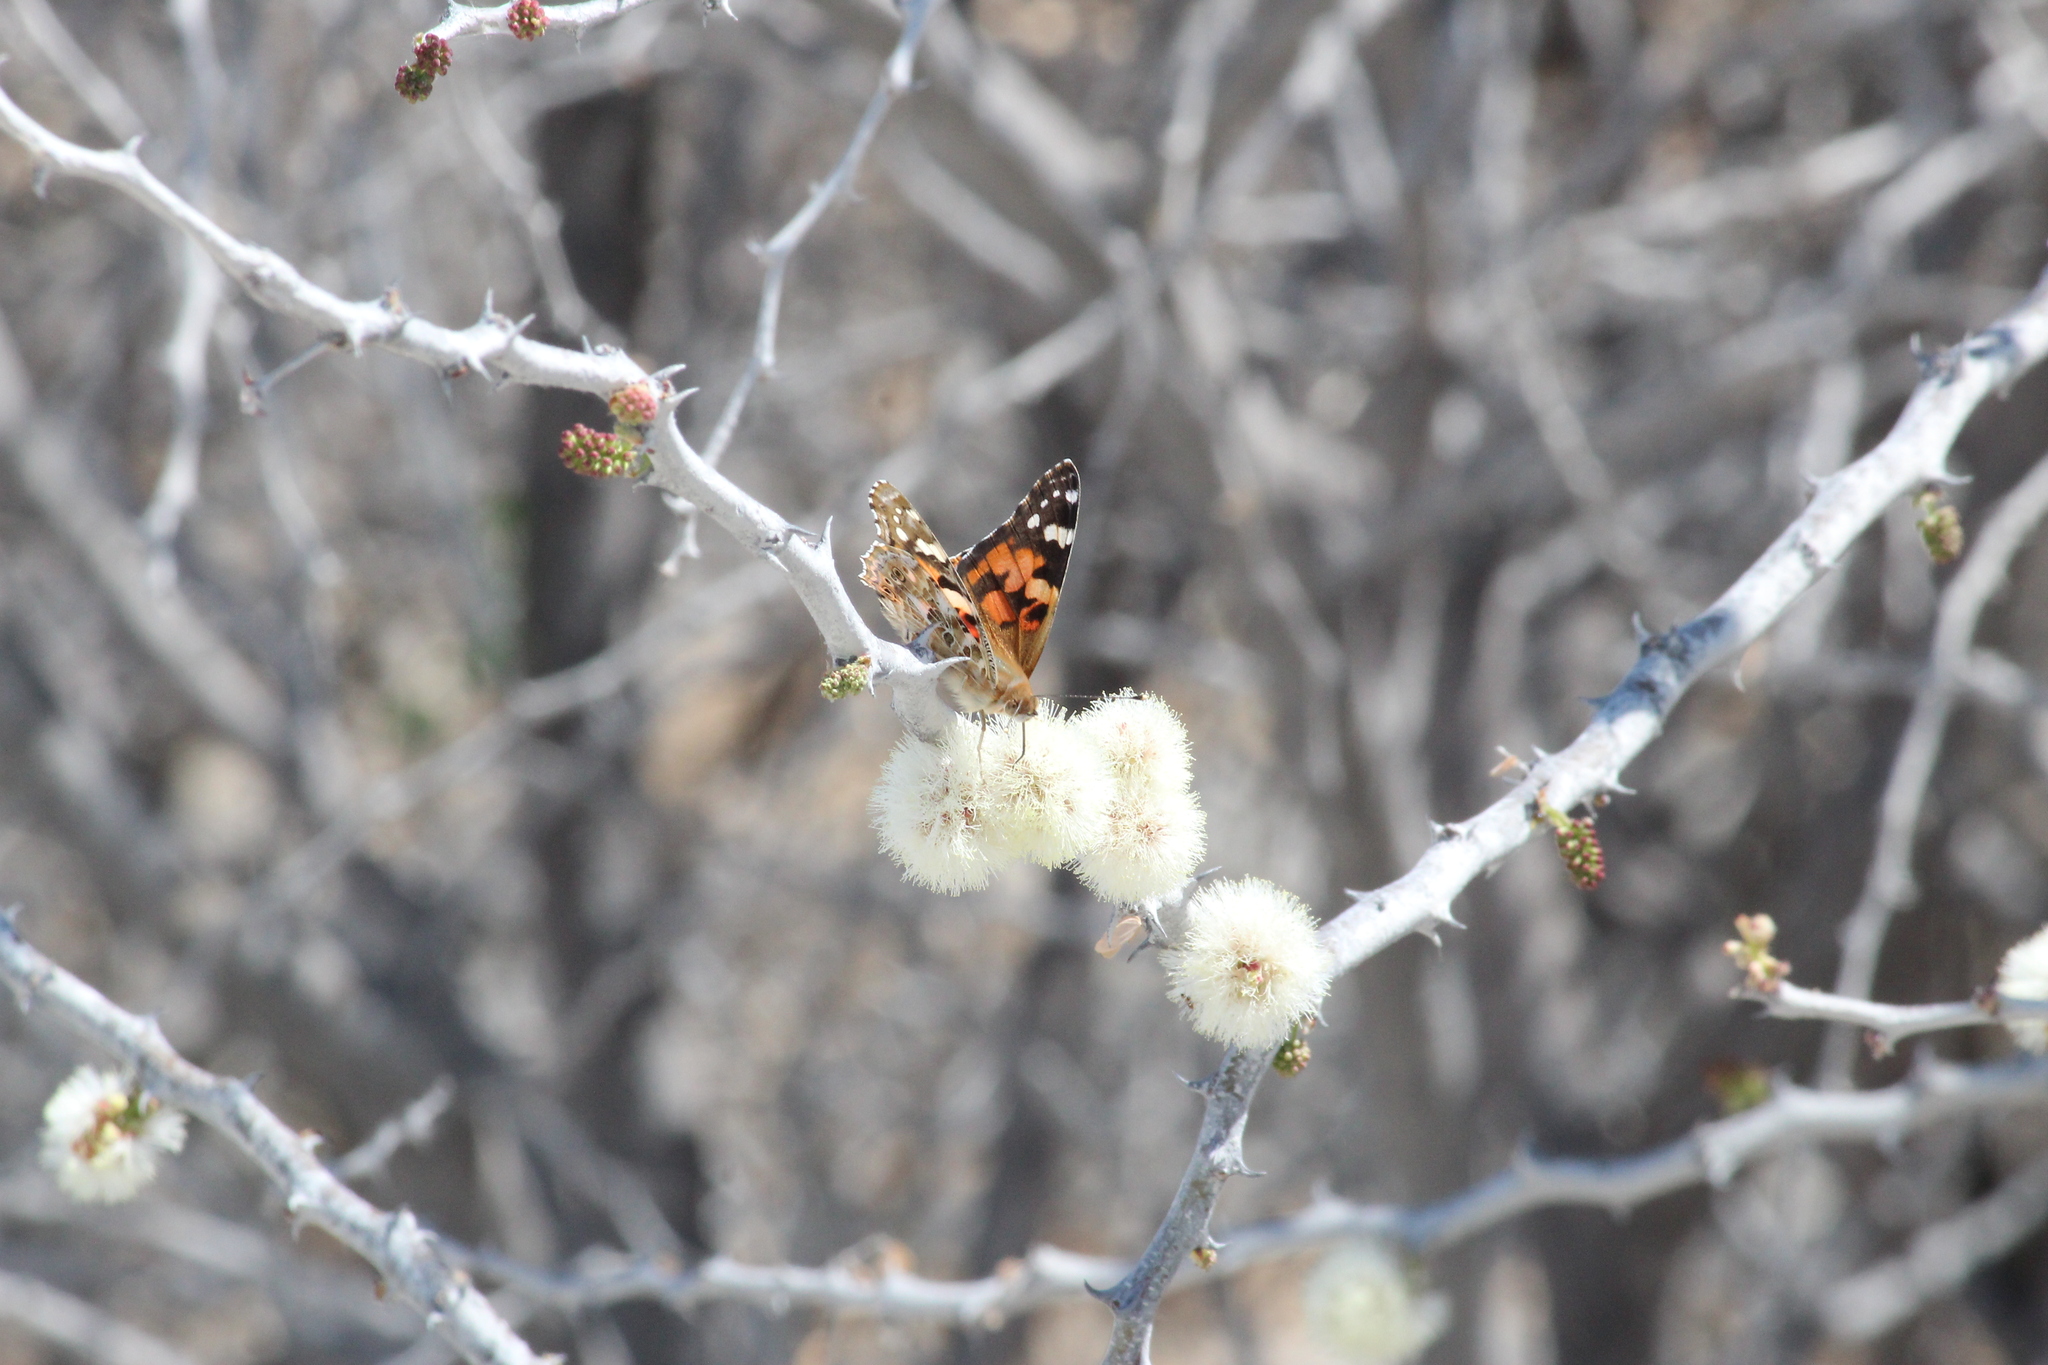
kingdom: Animalia
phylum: Arthropoda
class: Insecta
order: Lepidoptera
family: Nymphalidae
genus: Vanessa
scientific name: Vanessa cardui
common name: Painted lady
